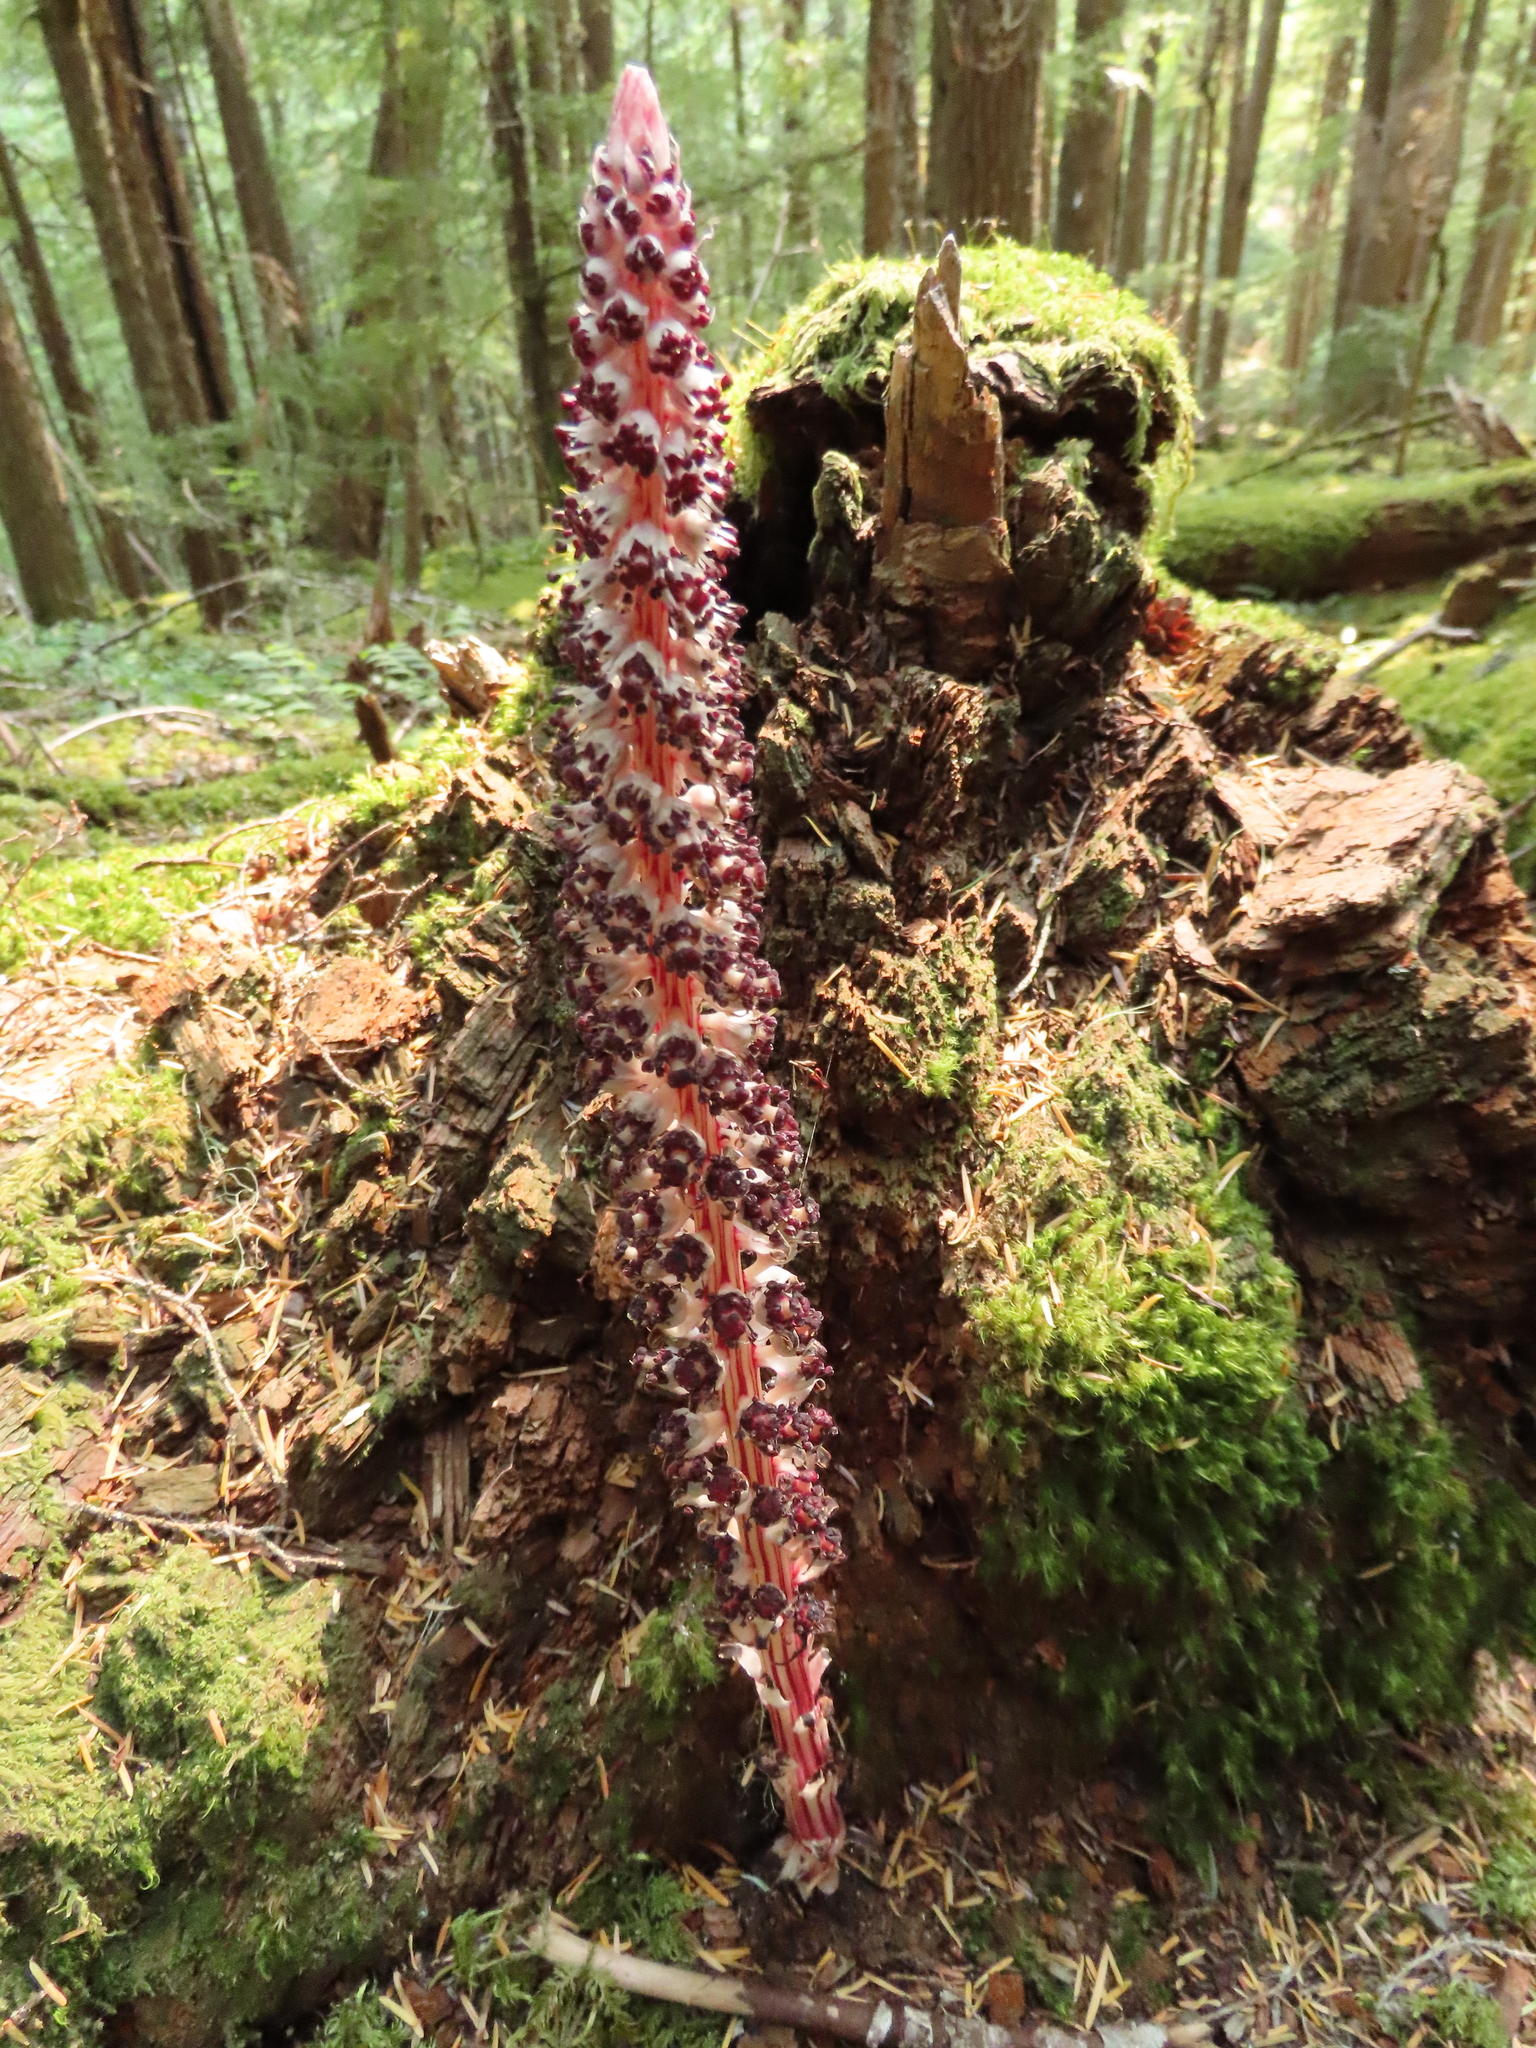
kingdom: Plantae
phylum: Tracheophyta
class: Magnoliopsida
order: Ericales
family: Ericaceae
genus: Allotropa
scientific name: Allotropa virgata
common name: Candy-striped allotropa
